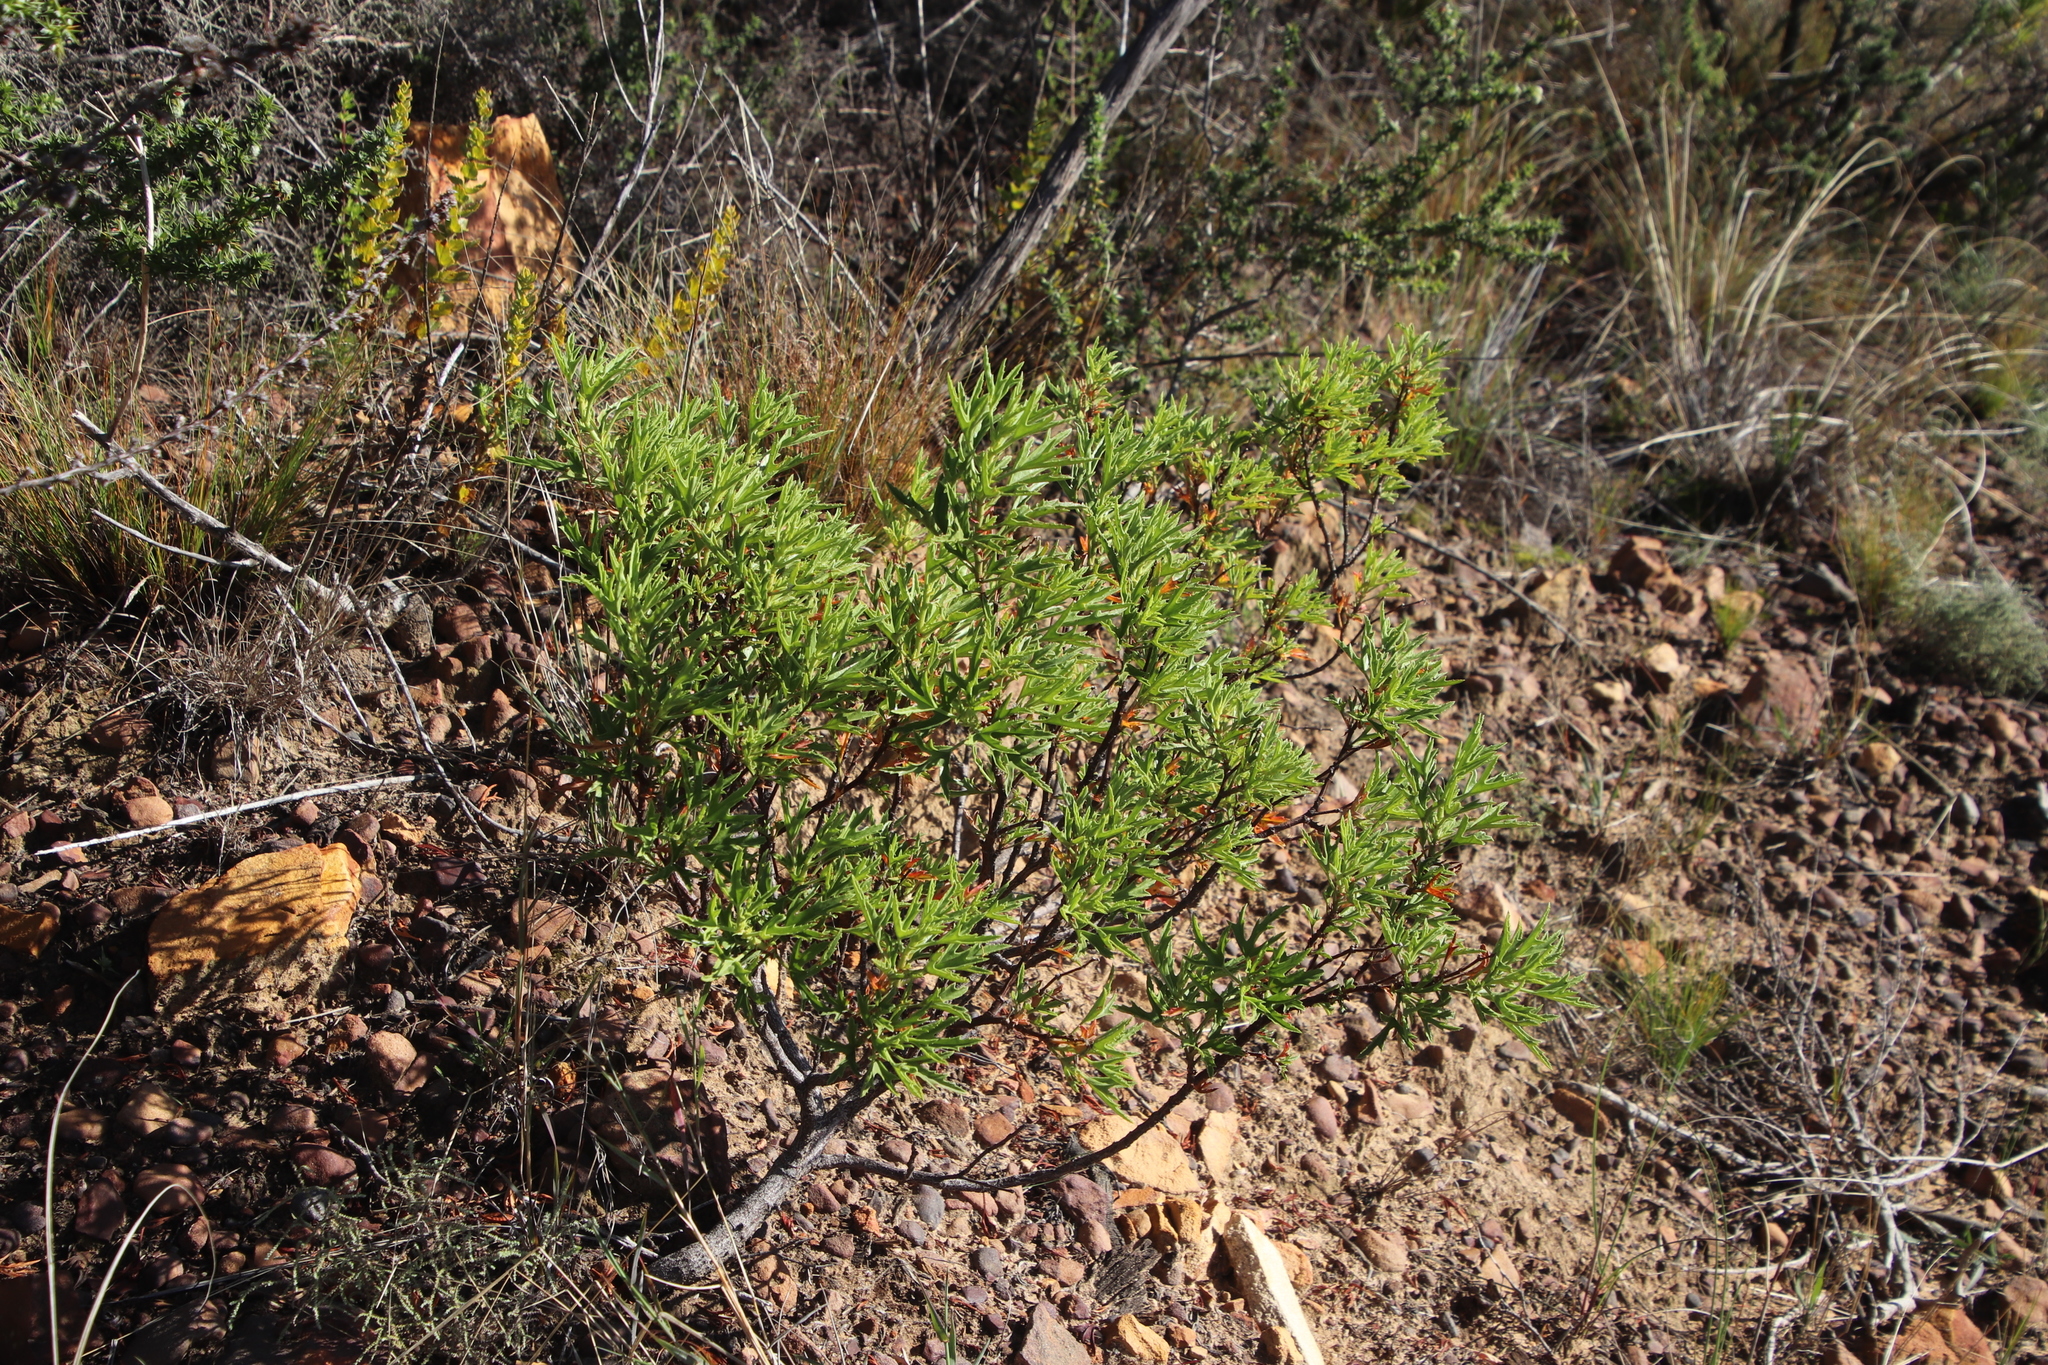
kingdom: Plantae
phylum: Tracheophyta
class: Magnoliopsida
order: Geraniales
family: Geraniaceae
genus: Pelargonium
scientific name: Pelargonium scabrum
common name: Apricot geranium
